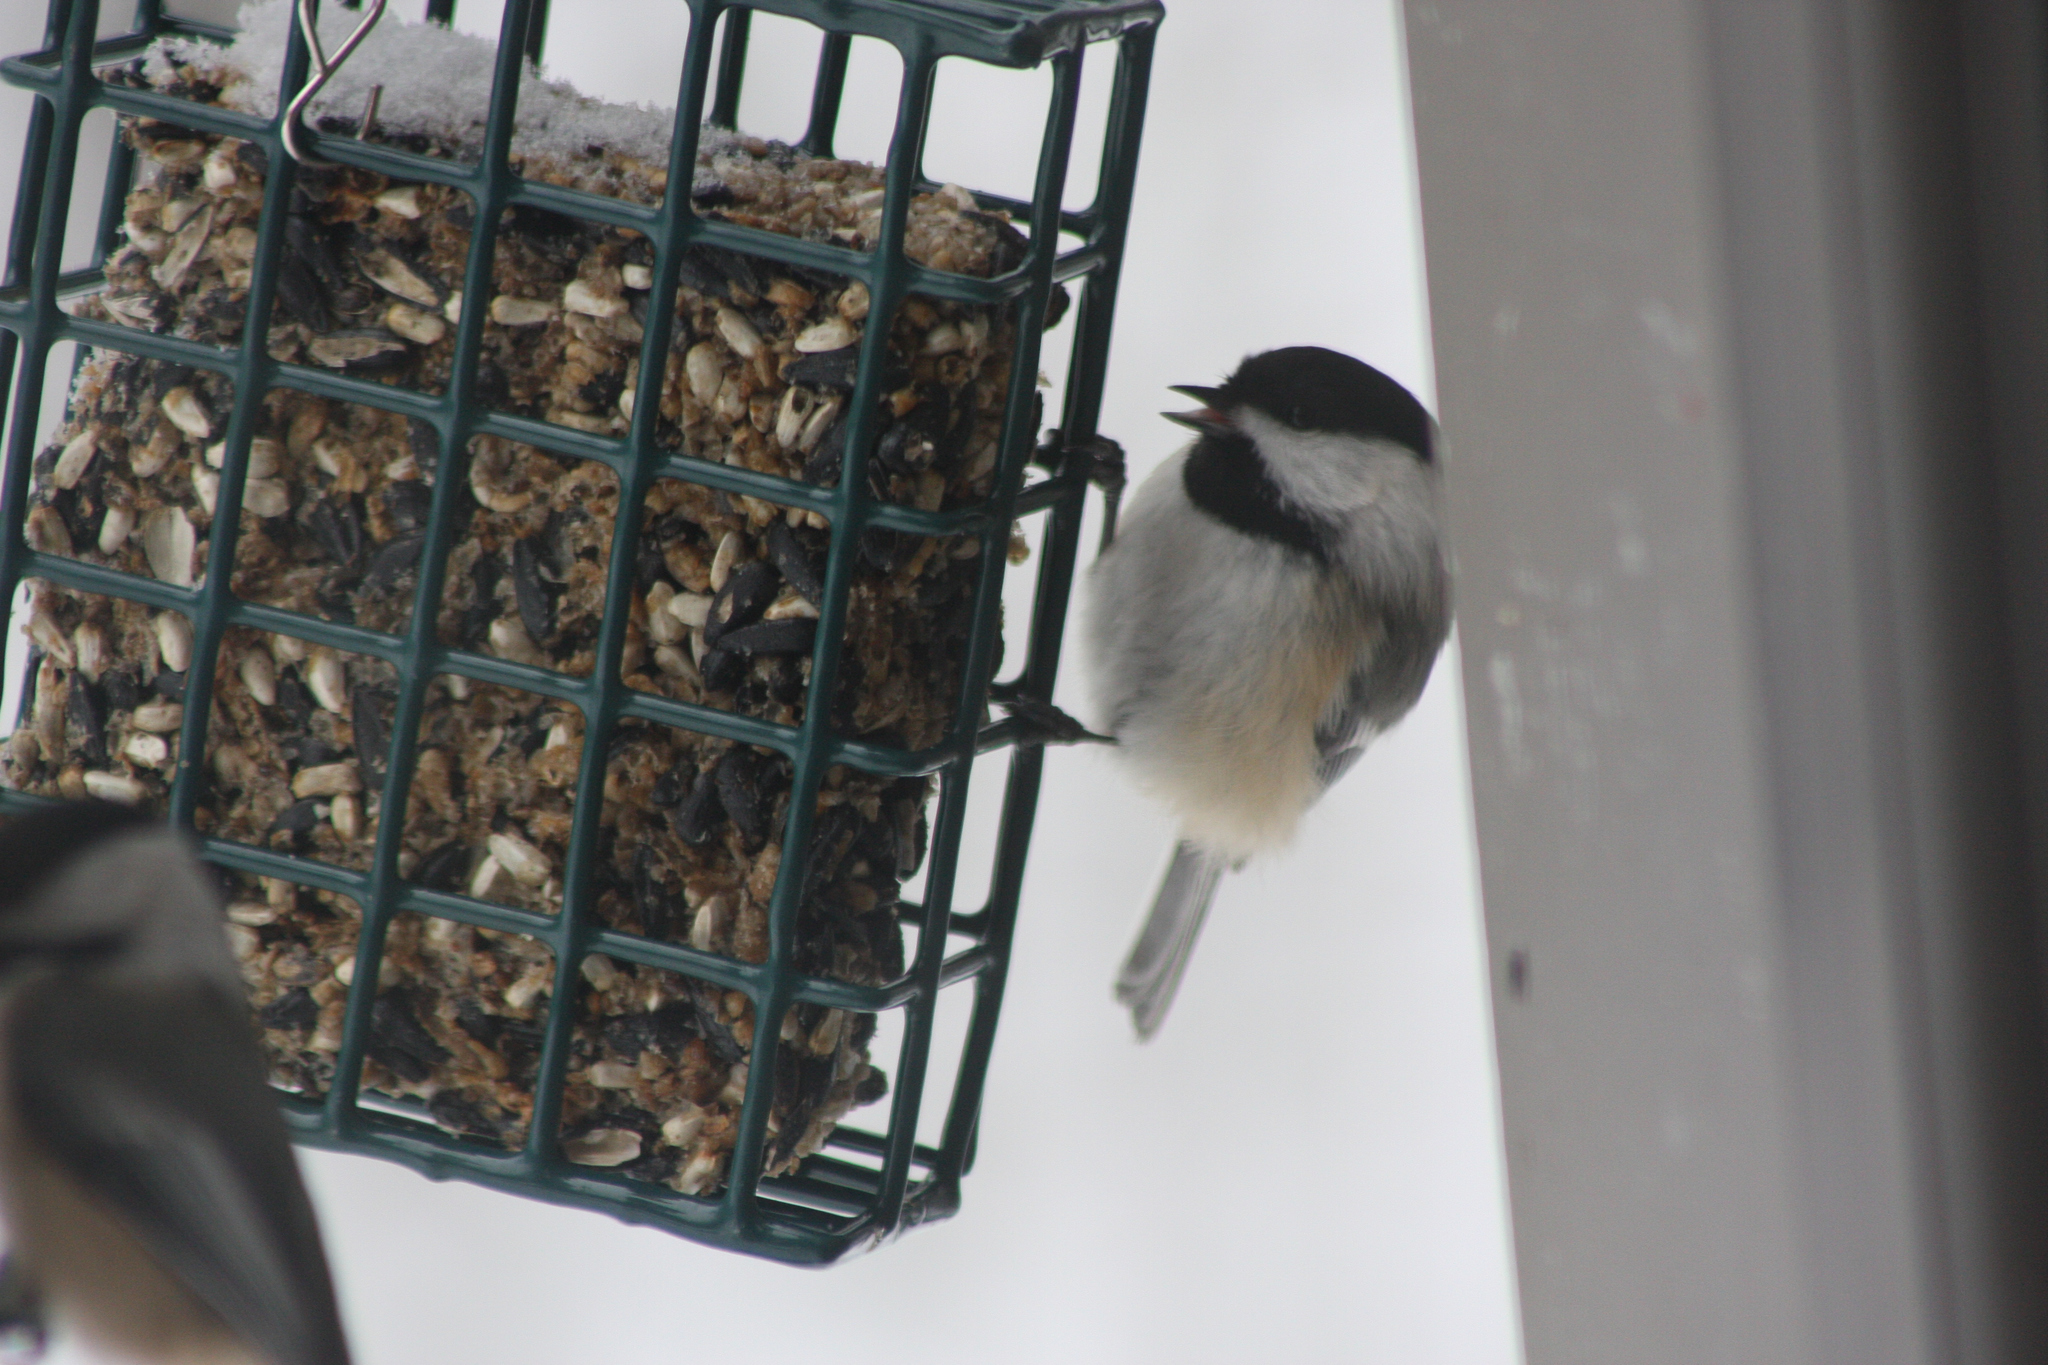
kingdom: Animalia
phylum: Chordata
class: Aves
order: Passeriformes
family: Paridae
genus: Poecile
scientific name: Poecile atricapillus
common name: Black-capped chickadee
